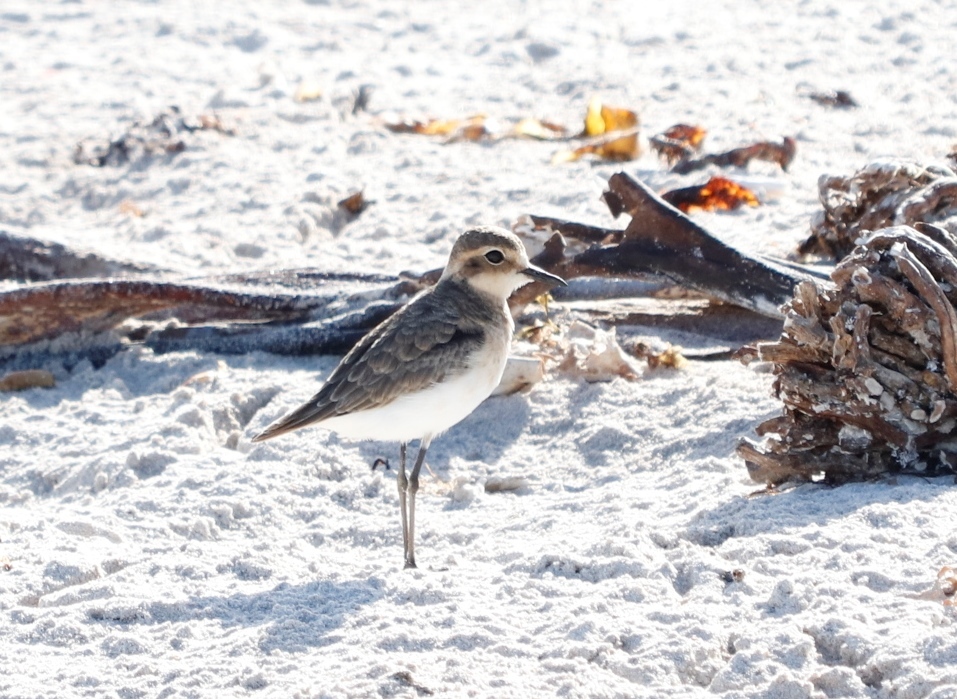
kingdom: Animalia
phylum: Chordata
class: Aves
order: Charadriiformes
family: Charadriidae
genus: Anarhynchus
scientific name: Anarhynchus
